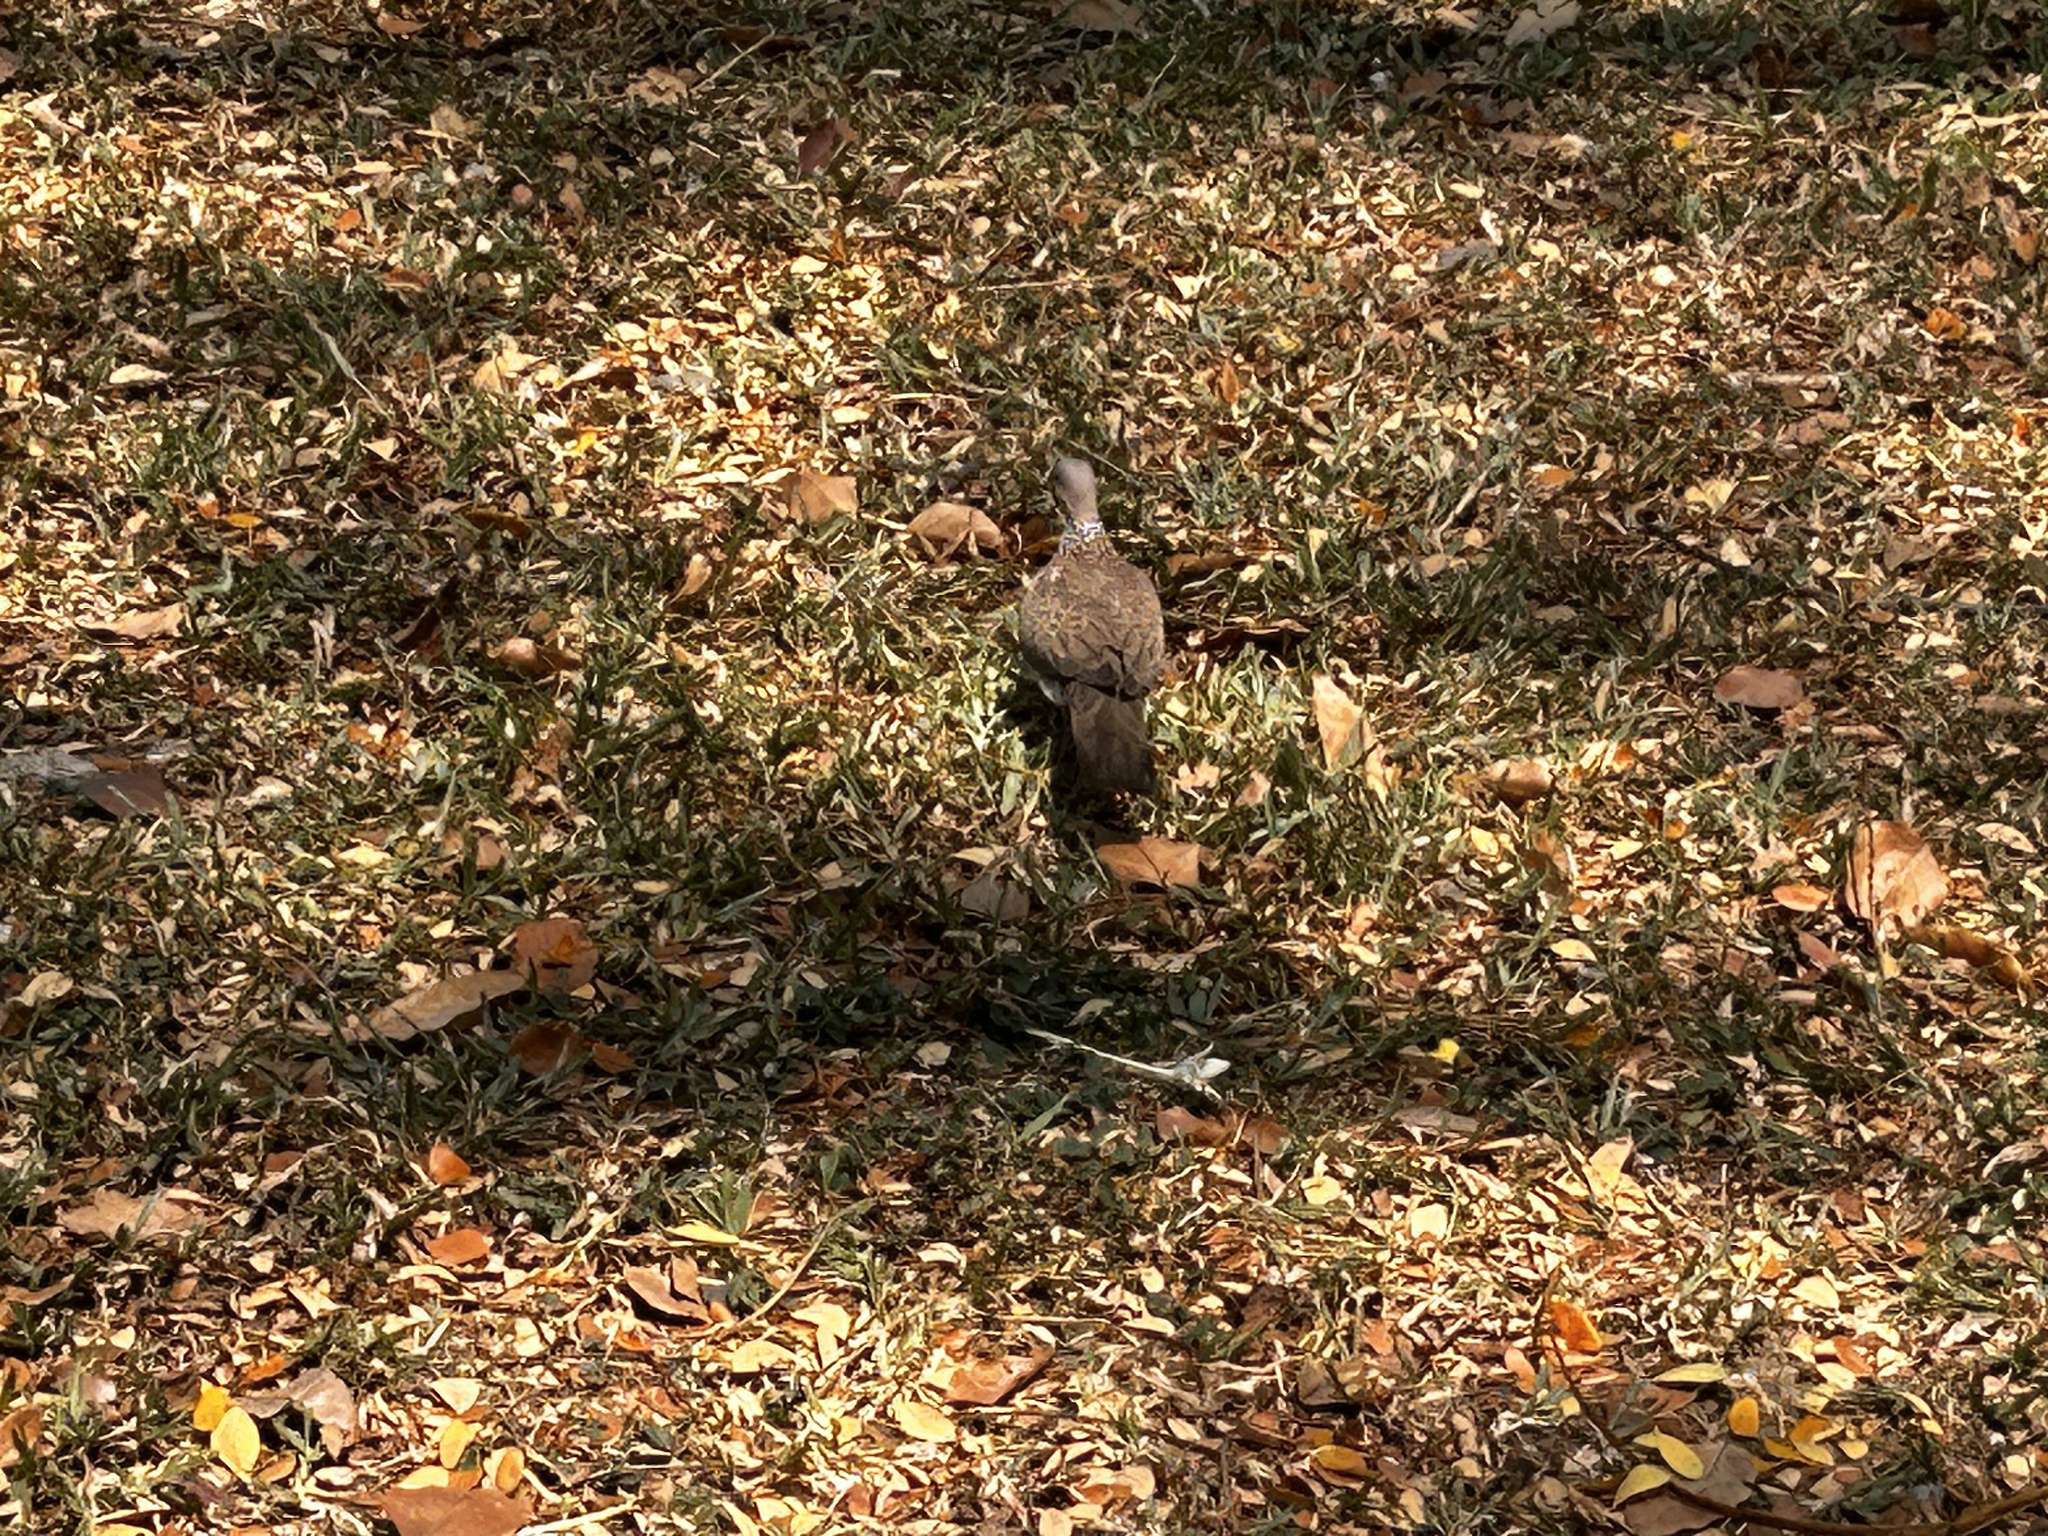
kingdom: Animalia
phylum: Chordata
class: Aves
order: Columbiformes
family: Columbidae
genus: Spilopelia
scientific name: Spilopelia chinensis
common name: Spotted dove
